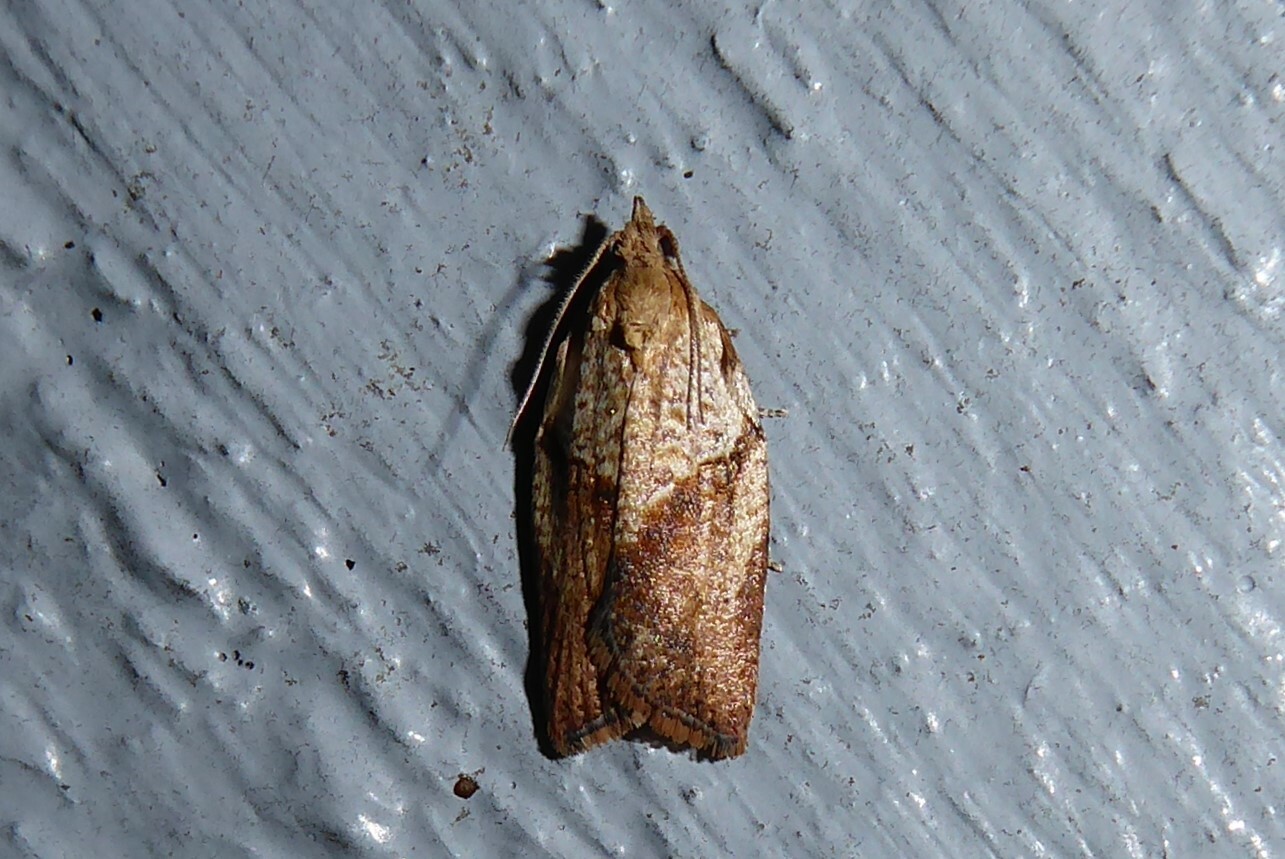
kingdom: Animalia
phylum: Arthropoda
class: Insecta
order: Lepidoptera
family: Tortricidae
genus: Epiphyas
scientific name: Epiphyas postvittana
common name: Light brown apple moth
